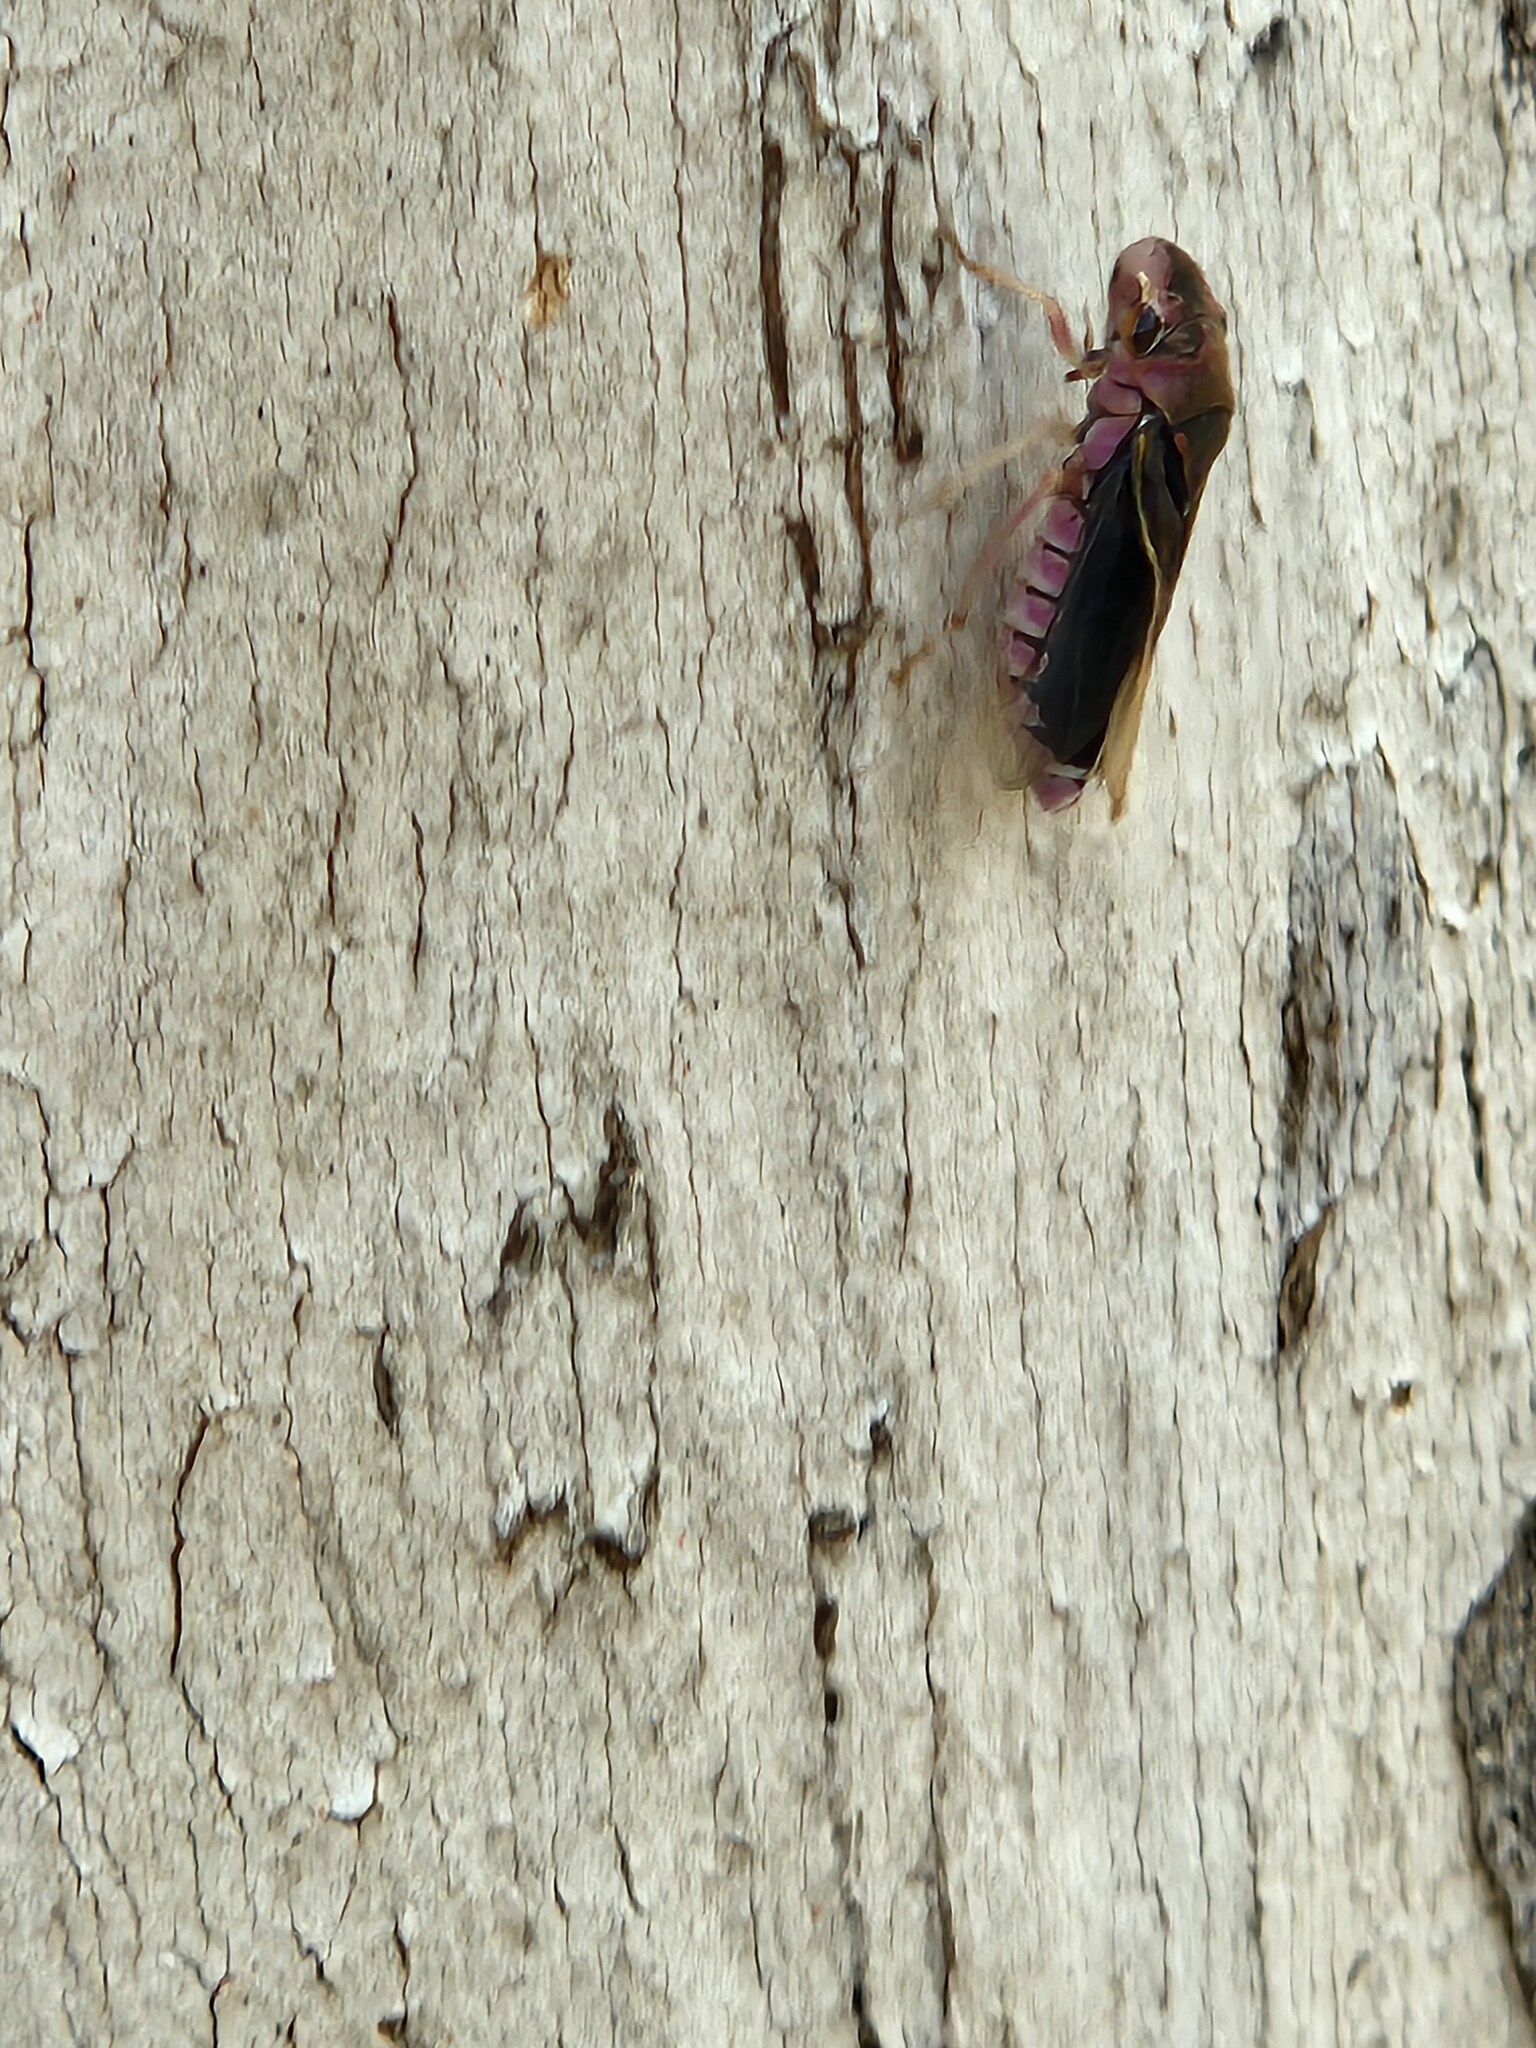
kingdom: Animalia
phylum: Arthropoda
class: Insecta
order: Hemiptera
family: Cicadellidae
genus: Oncometopia
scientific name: Oncometopia facialis
